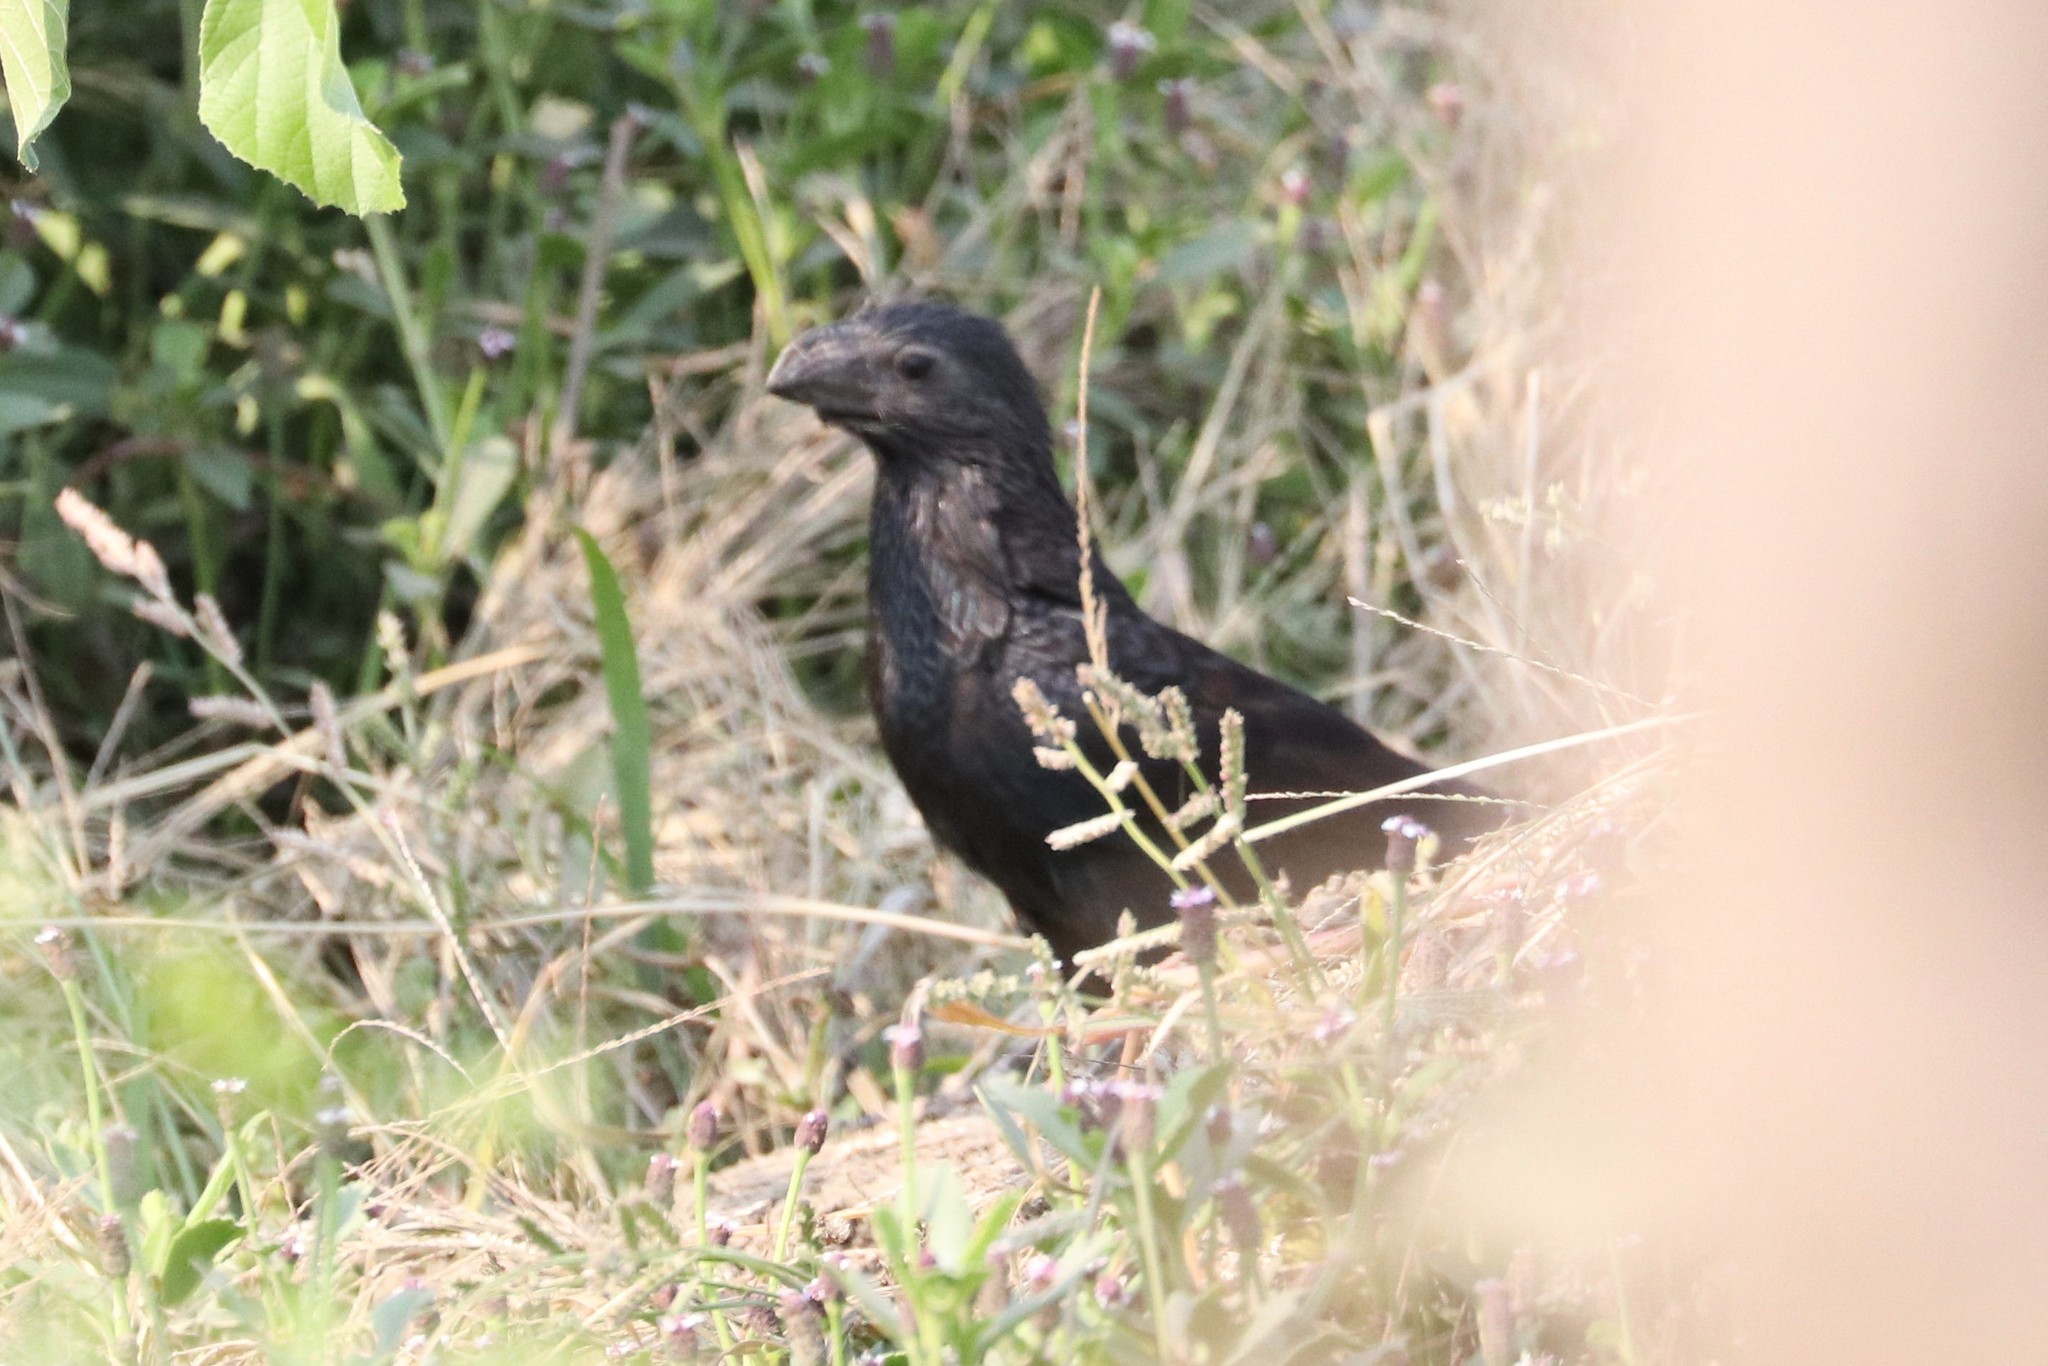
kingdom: Animalia
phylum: Chordata
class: Aves
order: Cuculiformes
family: Cuculidae
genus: Crotophaga
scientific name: Crotophaga sulcirostris
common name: Groove-billed ani
